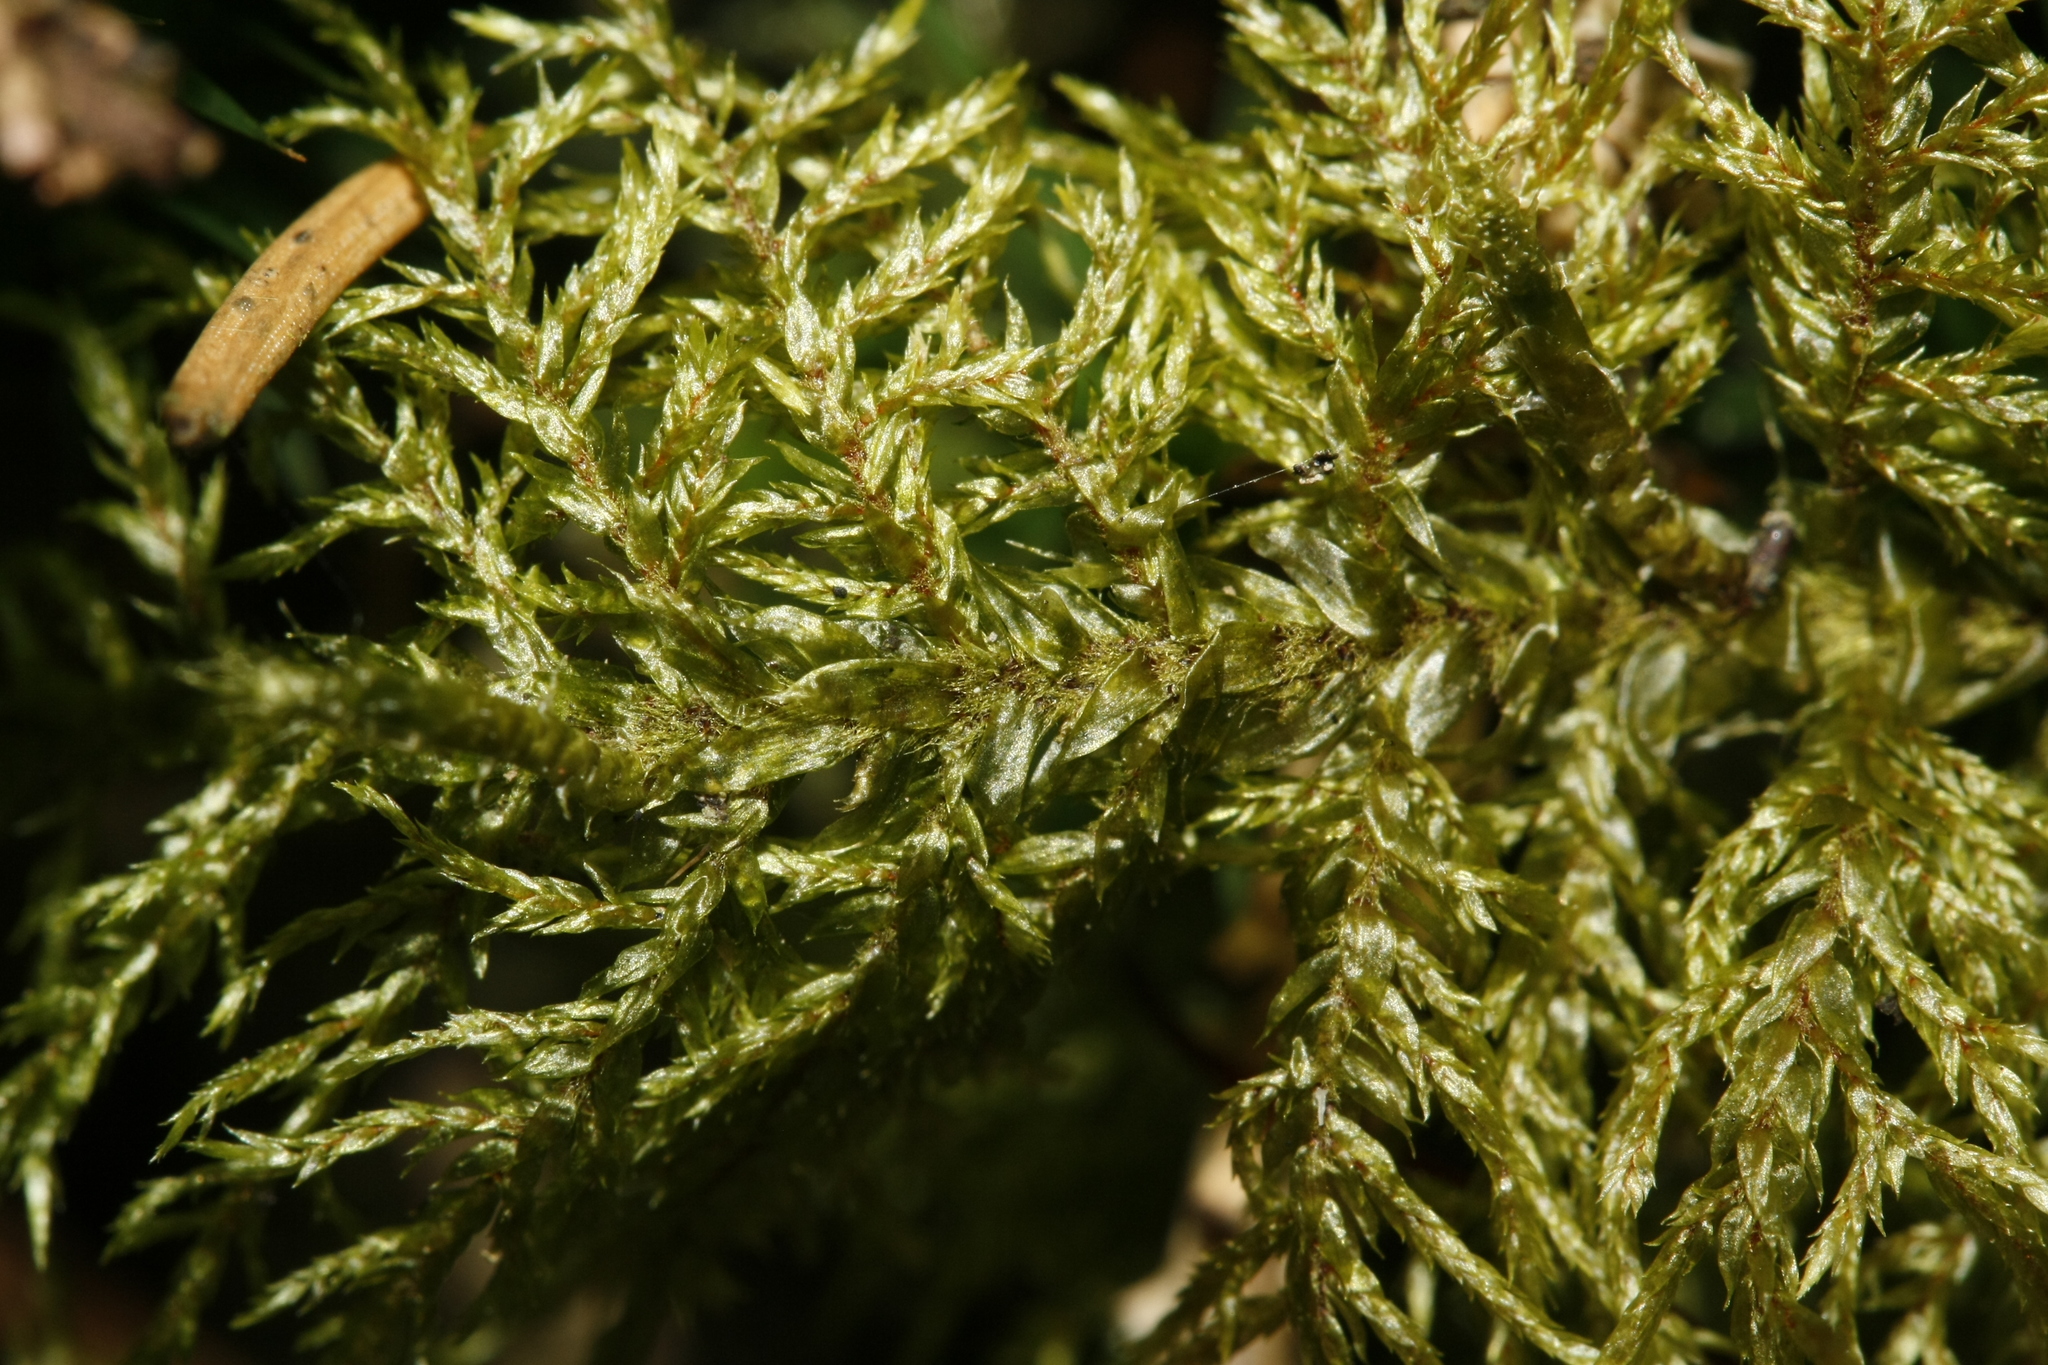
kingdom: Plantae
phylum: Bryophyta
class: Bryopsida
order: Hypnales
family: Hylocomiaceae
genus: Hylocomium
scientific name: Hylocomium splendens
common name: Stairstep moss
